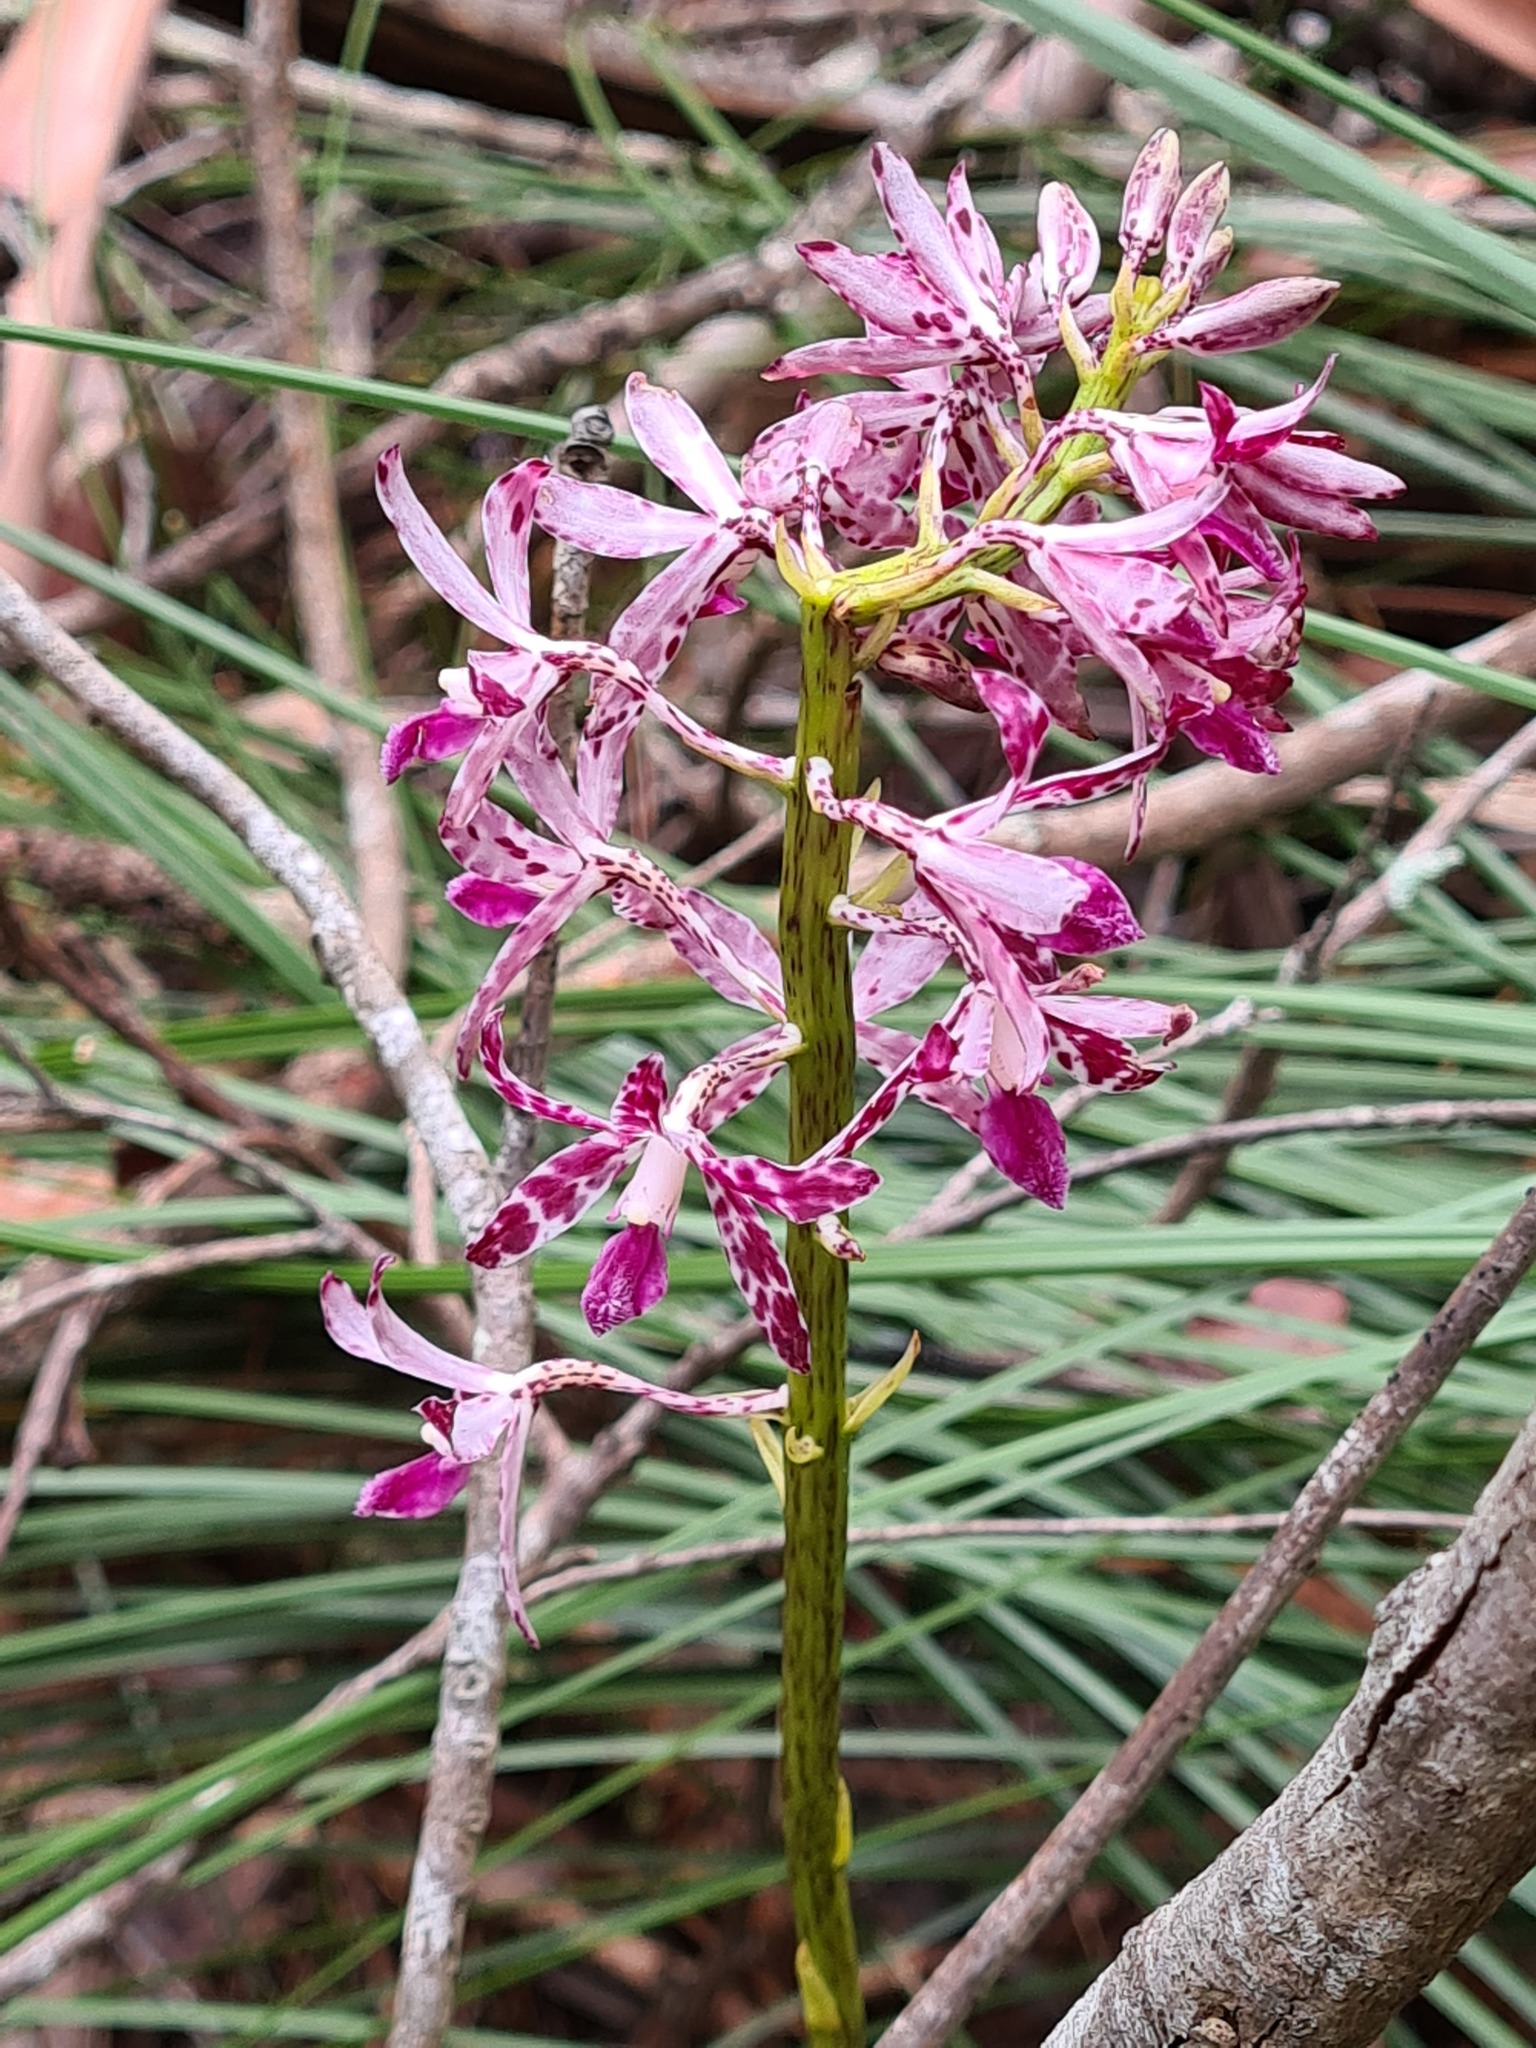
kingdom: Plantae
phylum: Tracheophyta
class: Liliopsida
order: Asparagales
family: Orchidaceae
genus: Dipodium
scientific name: Dipodium variegatum
